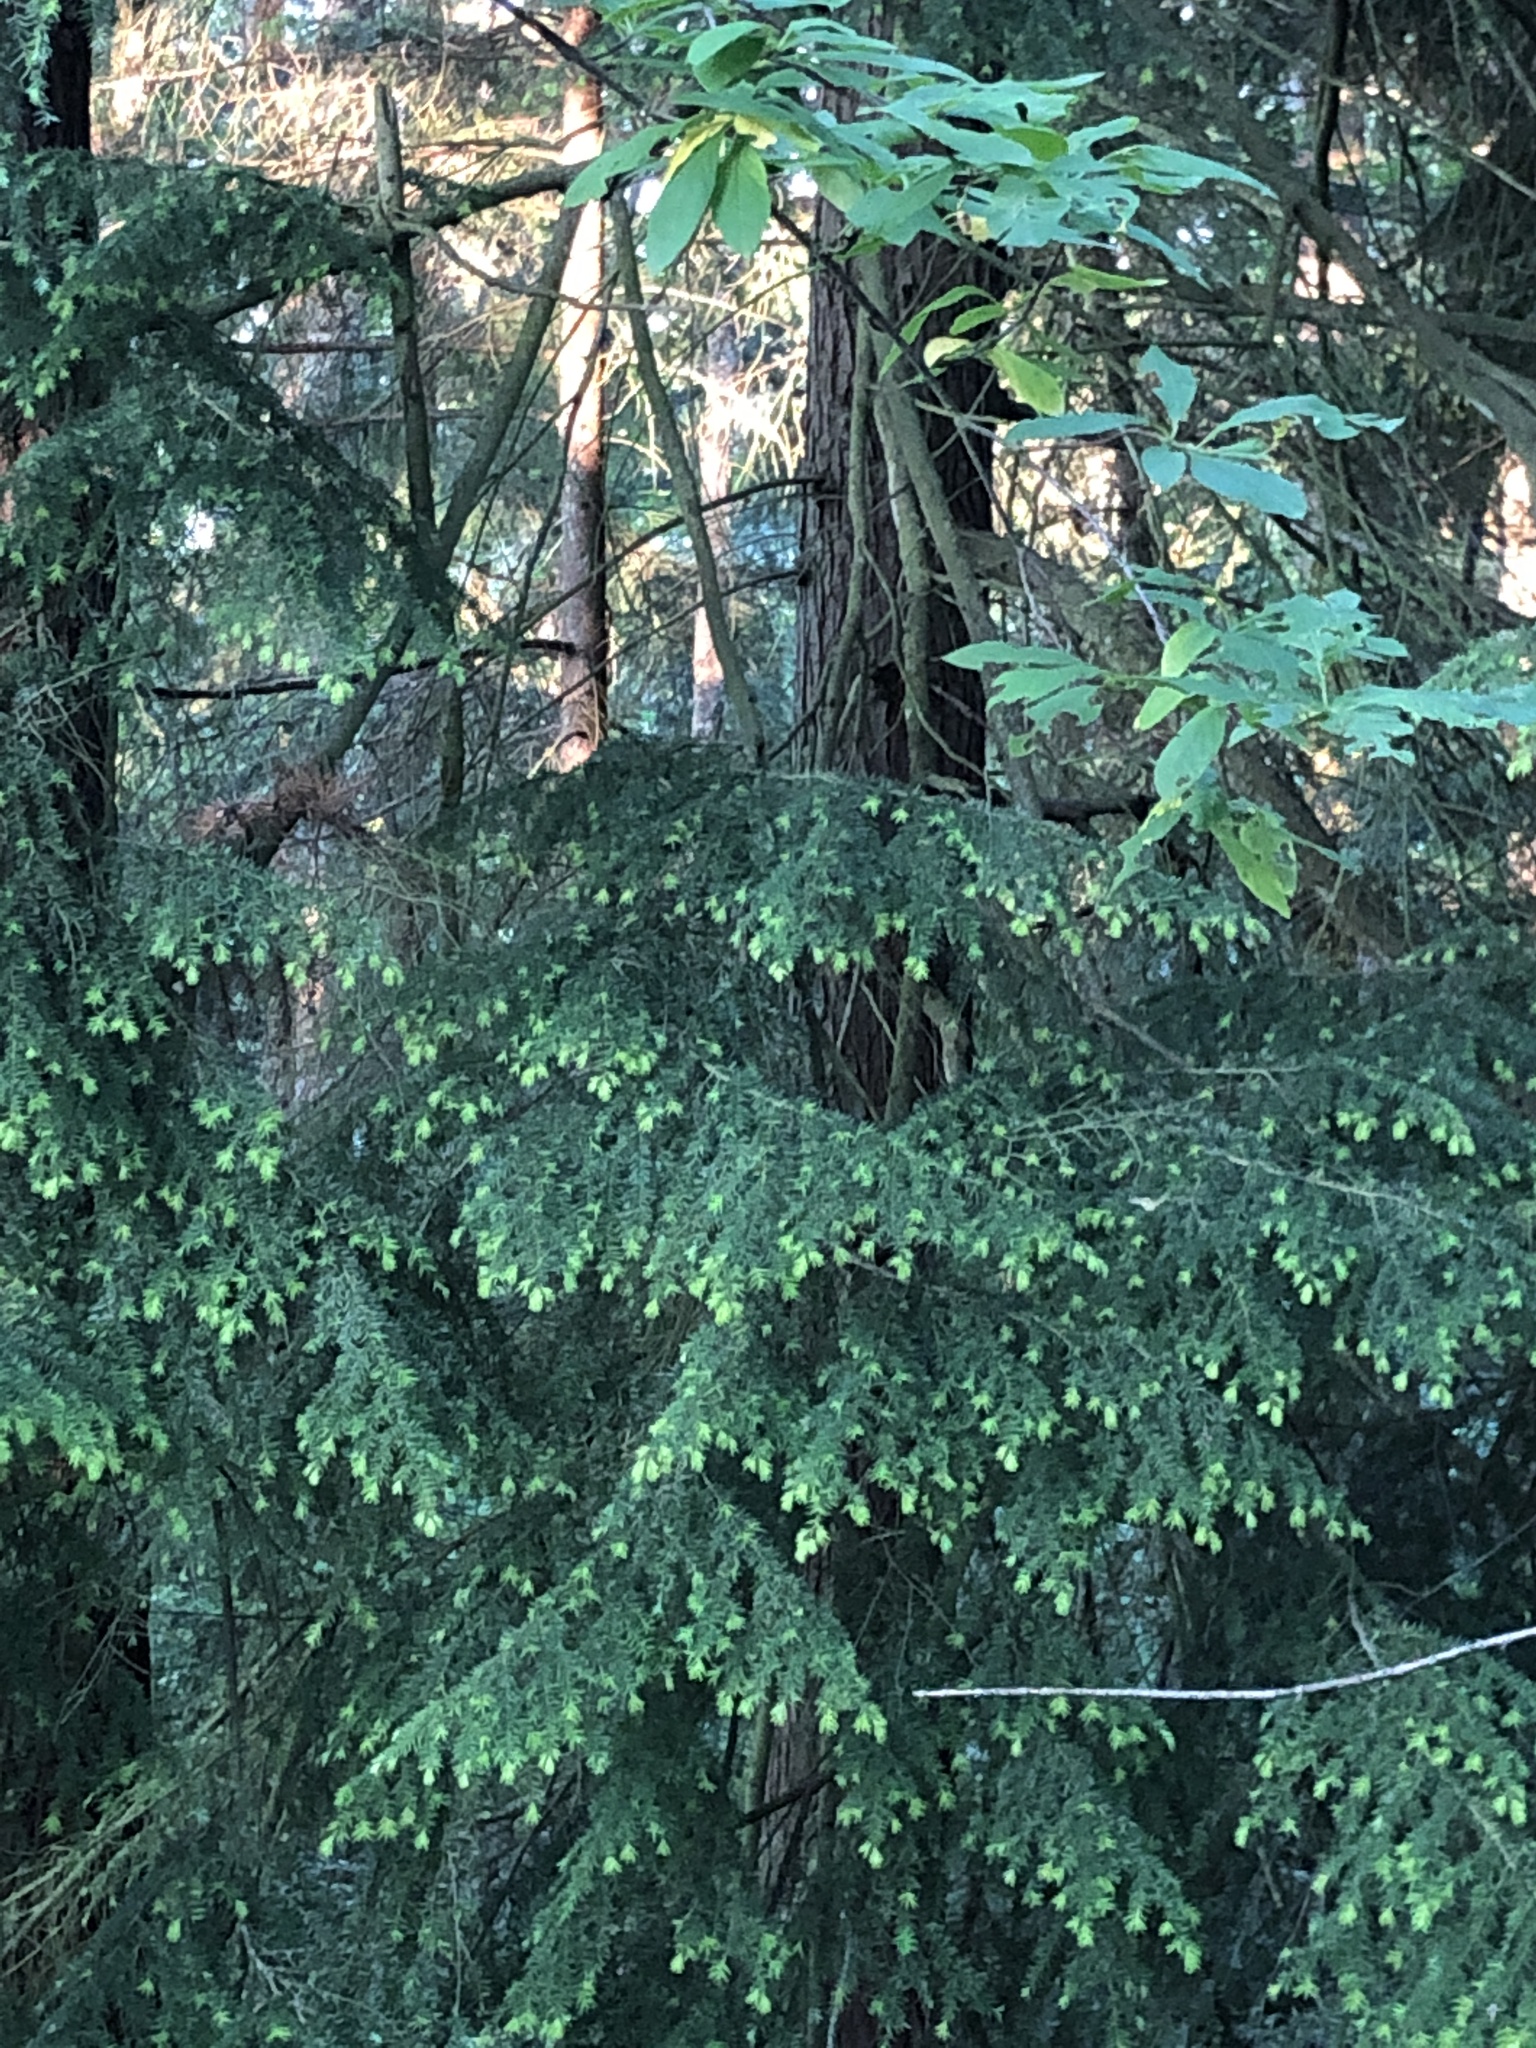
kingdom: Plantae
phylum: Tracheophyta
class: Pinopsida
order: Pinales
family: Pinaceae
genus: Tsuga
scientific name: Tsuga heterophylla
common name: Western hemlock
